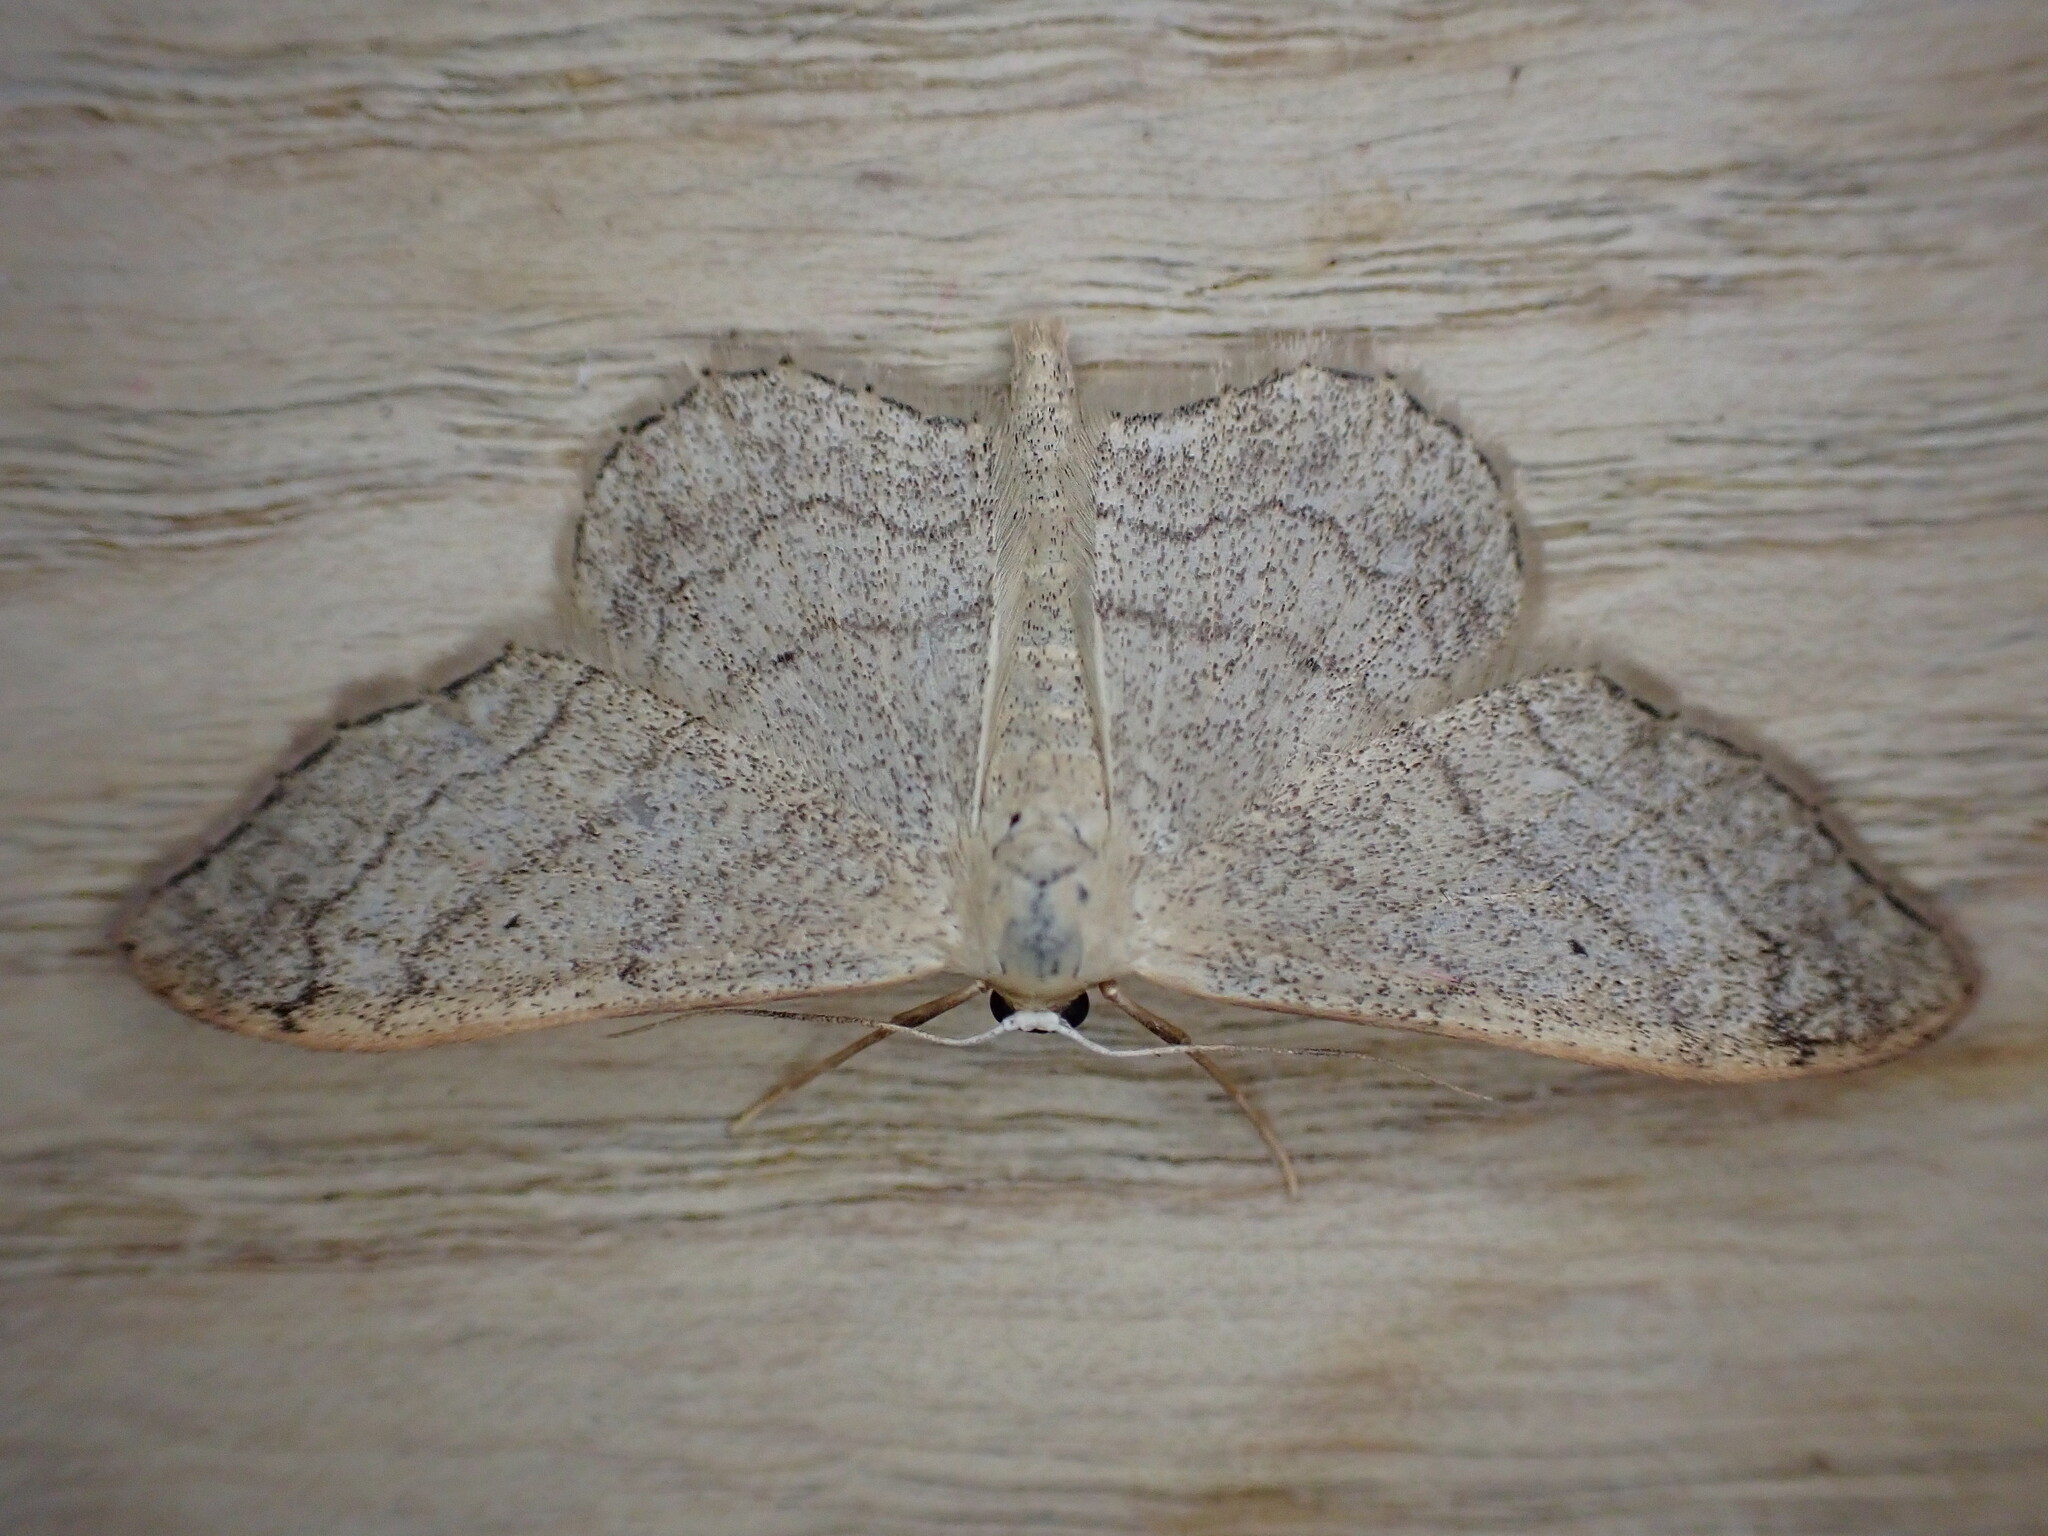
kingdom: Animalia
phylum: Arthropoda
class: Insecta
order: Lepidoptera
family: Geometridae
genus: Idaea
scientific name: Idaea aversata
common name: Riband wave
